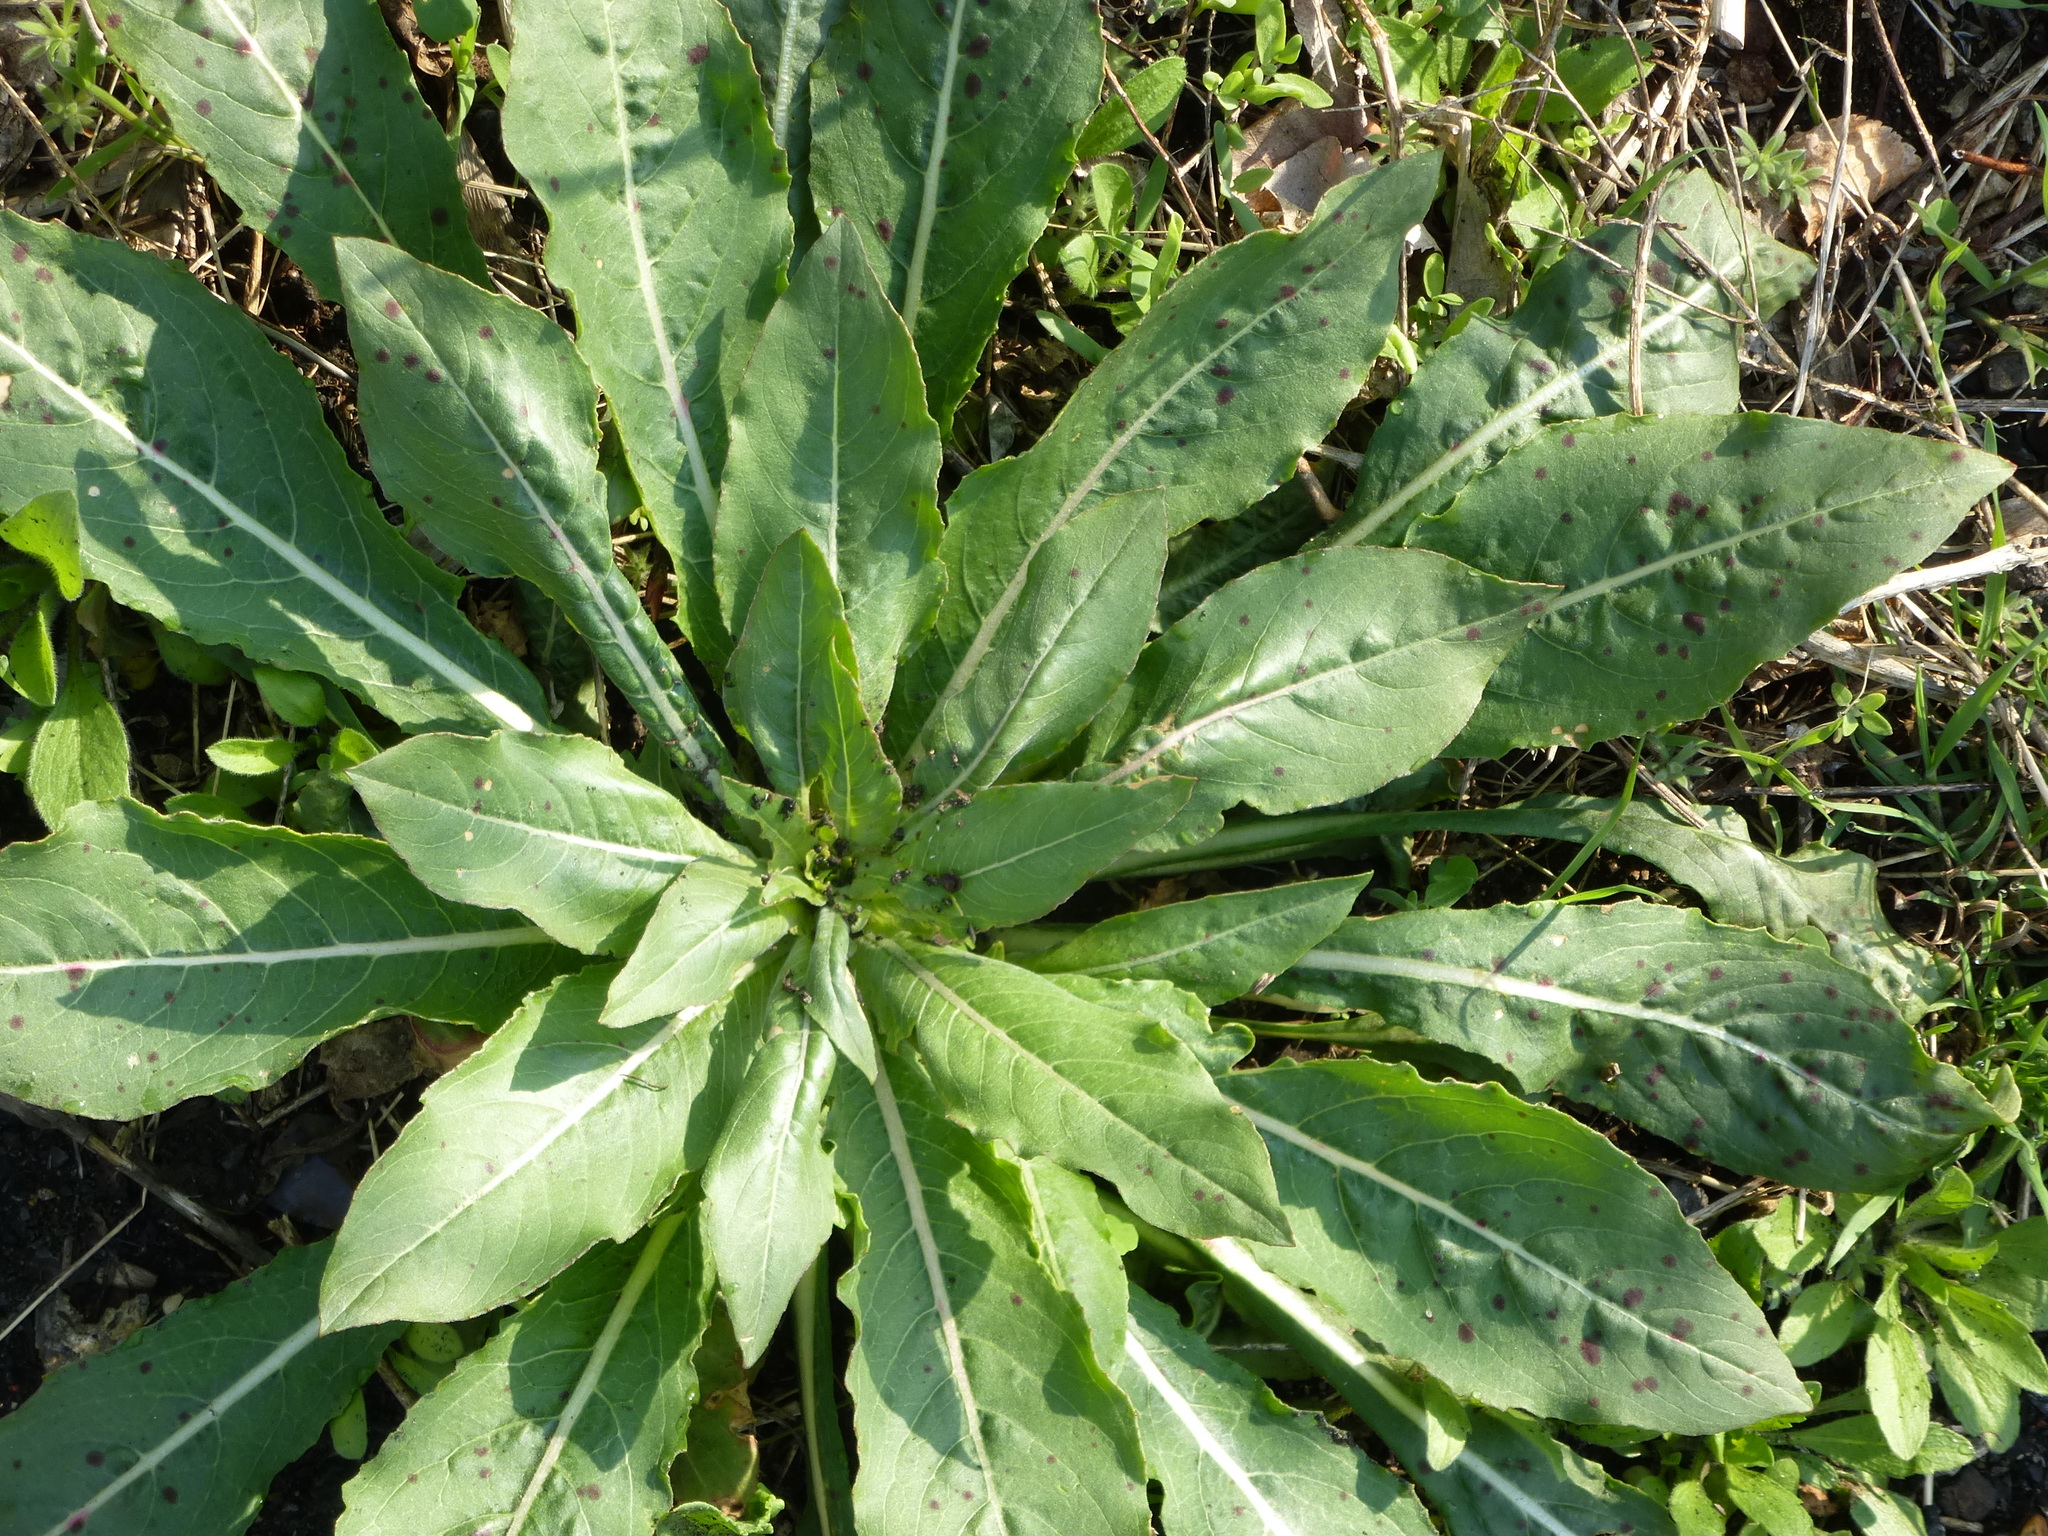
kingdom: Plantae
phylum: Tracheophyta
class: Magnoliopsida
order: Myrtales
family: Onagraceae
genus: Oenothera
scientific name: Oenothera biennis
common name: Common evening-primrose
